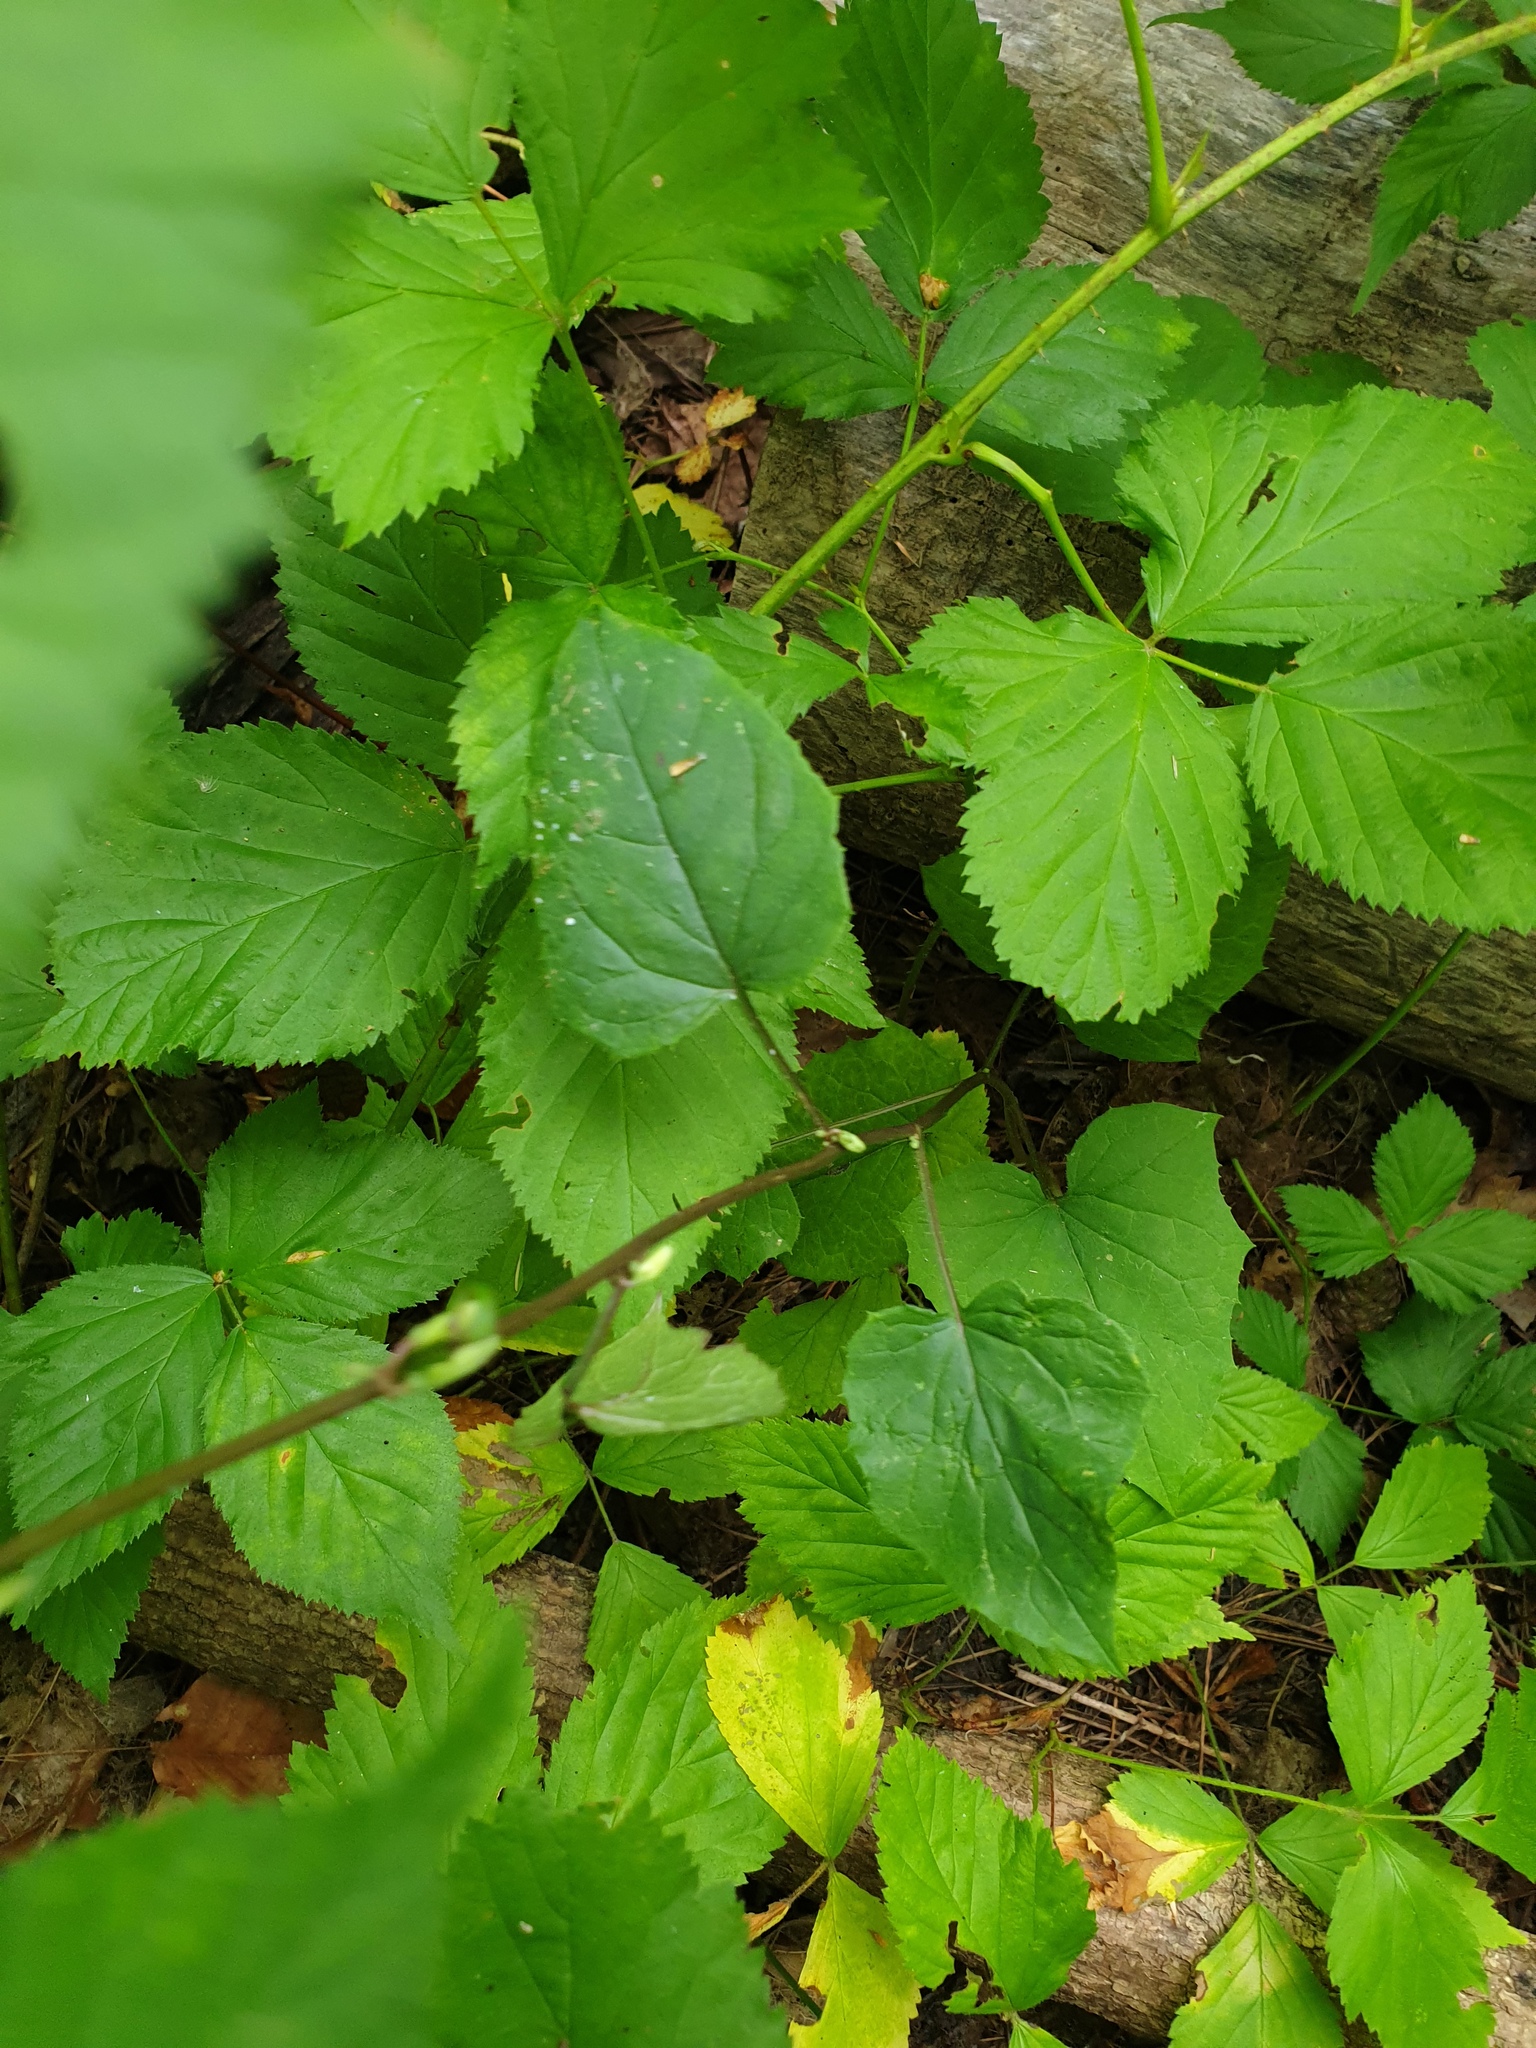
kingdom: Plantae
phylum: Tracheophyta
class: Magnoliopsida
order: Asterales
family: Asteraceae
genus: Nabalus
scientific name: Nabalus altissima
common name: Tall rattlesnakeroot
